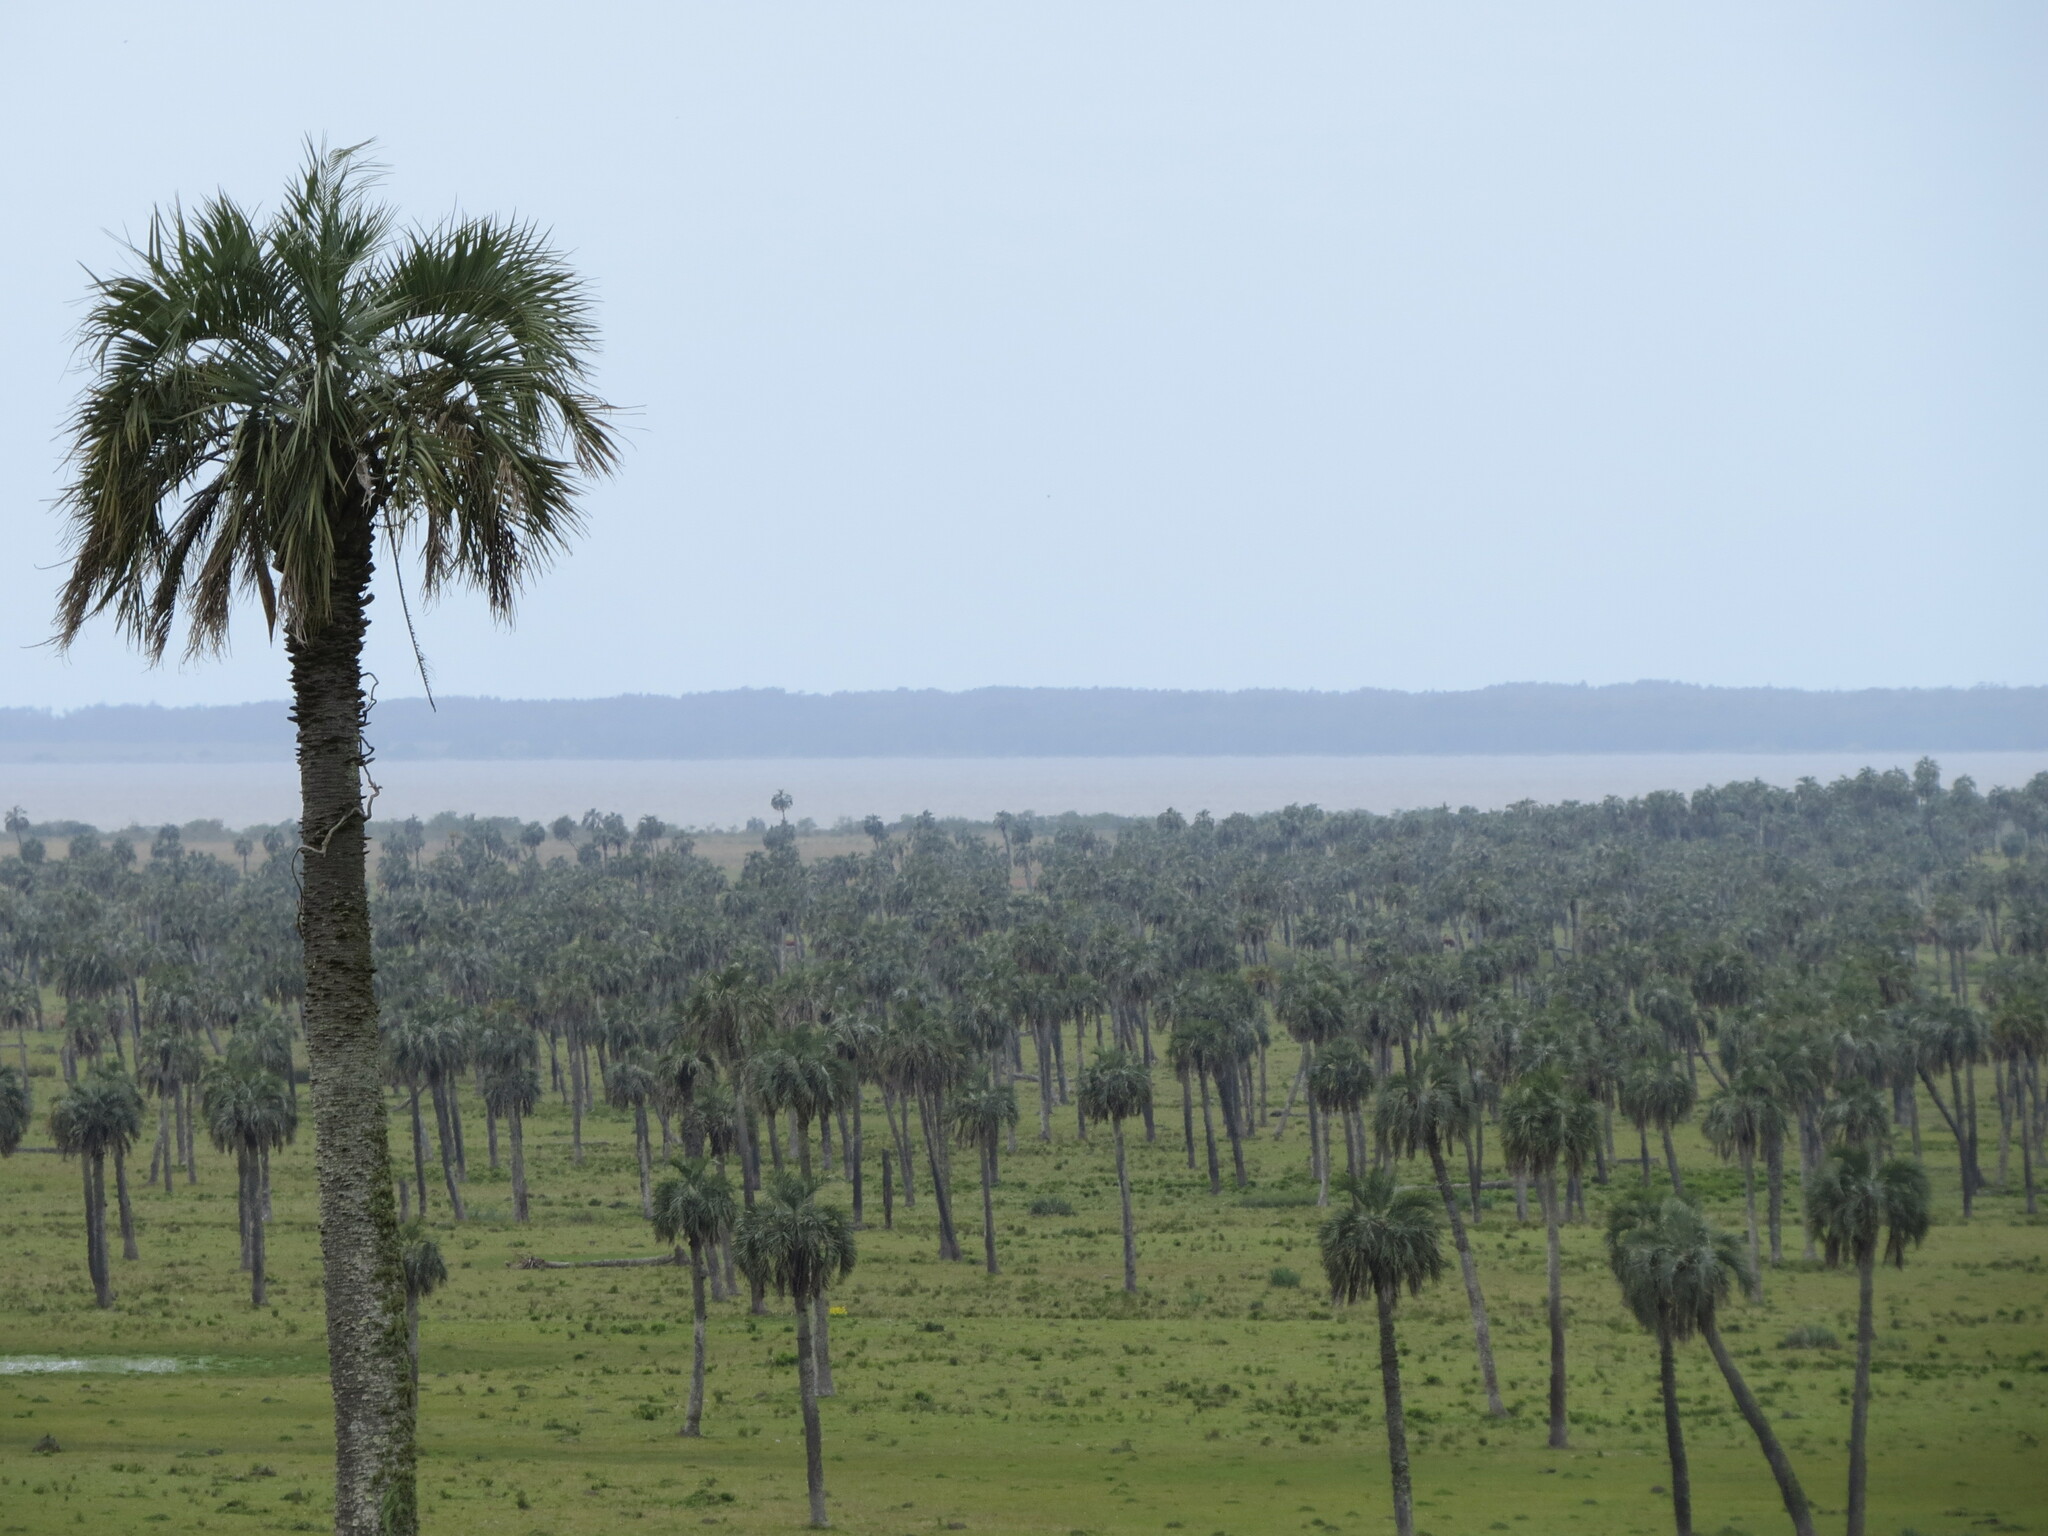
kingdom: Plantae
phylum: Tracheophyta
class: Liliopsida
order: Arecales
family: Arecaceae
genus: Butia
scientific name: Butia odorata
